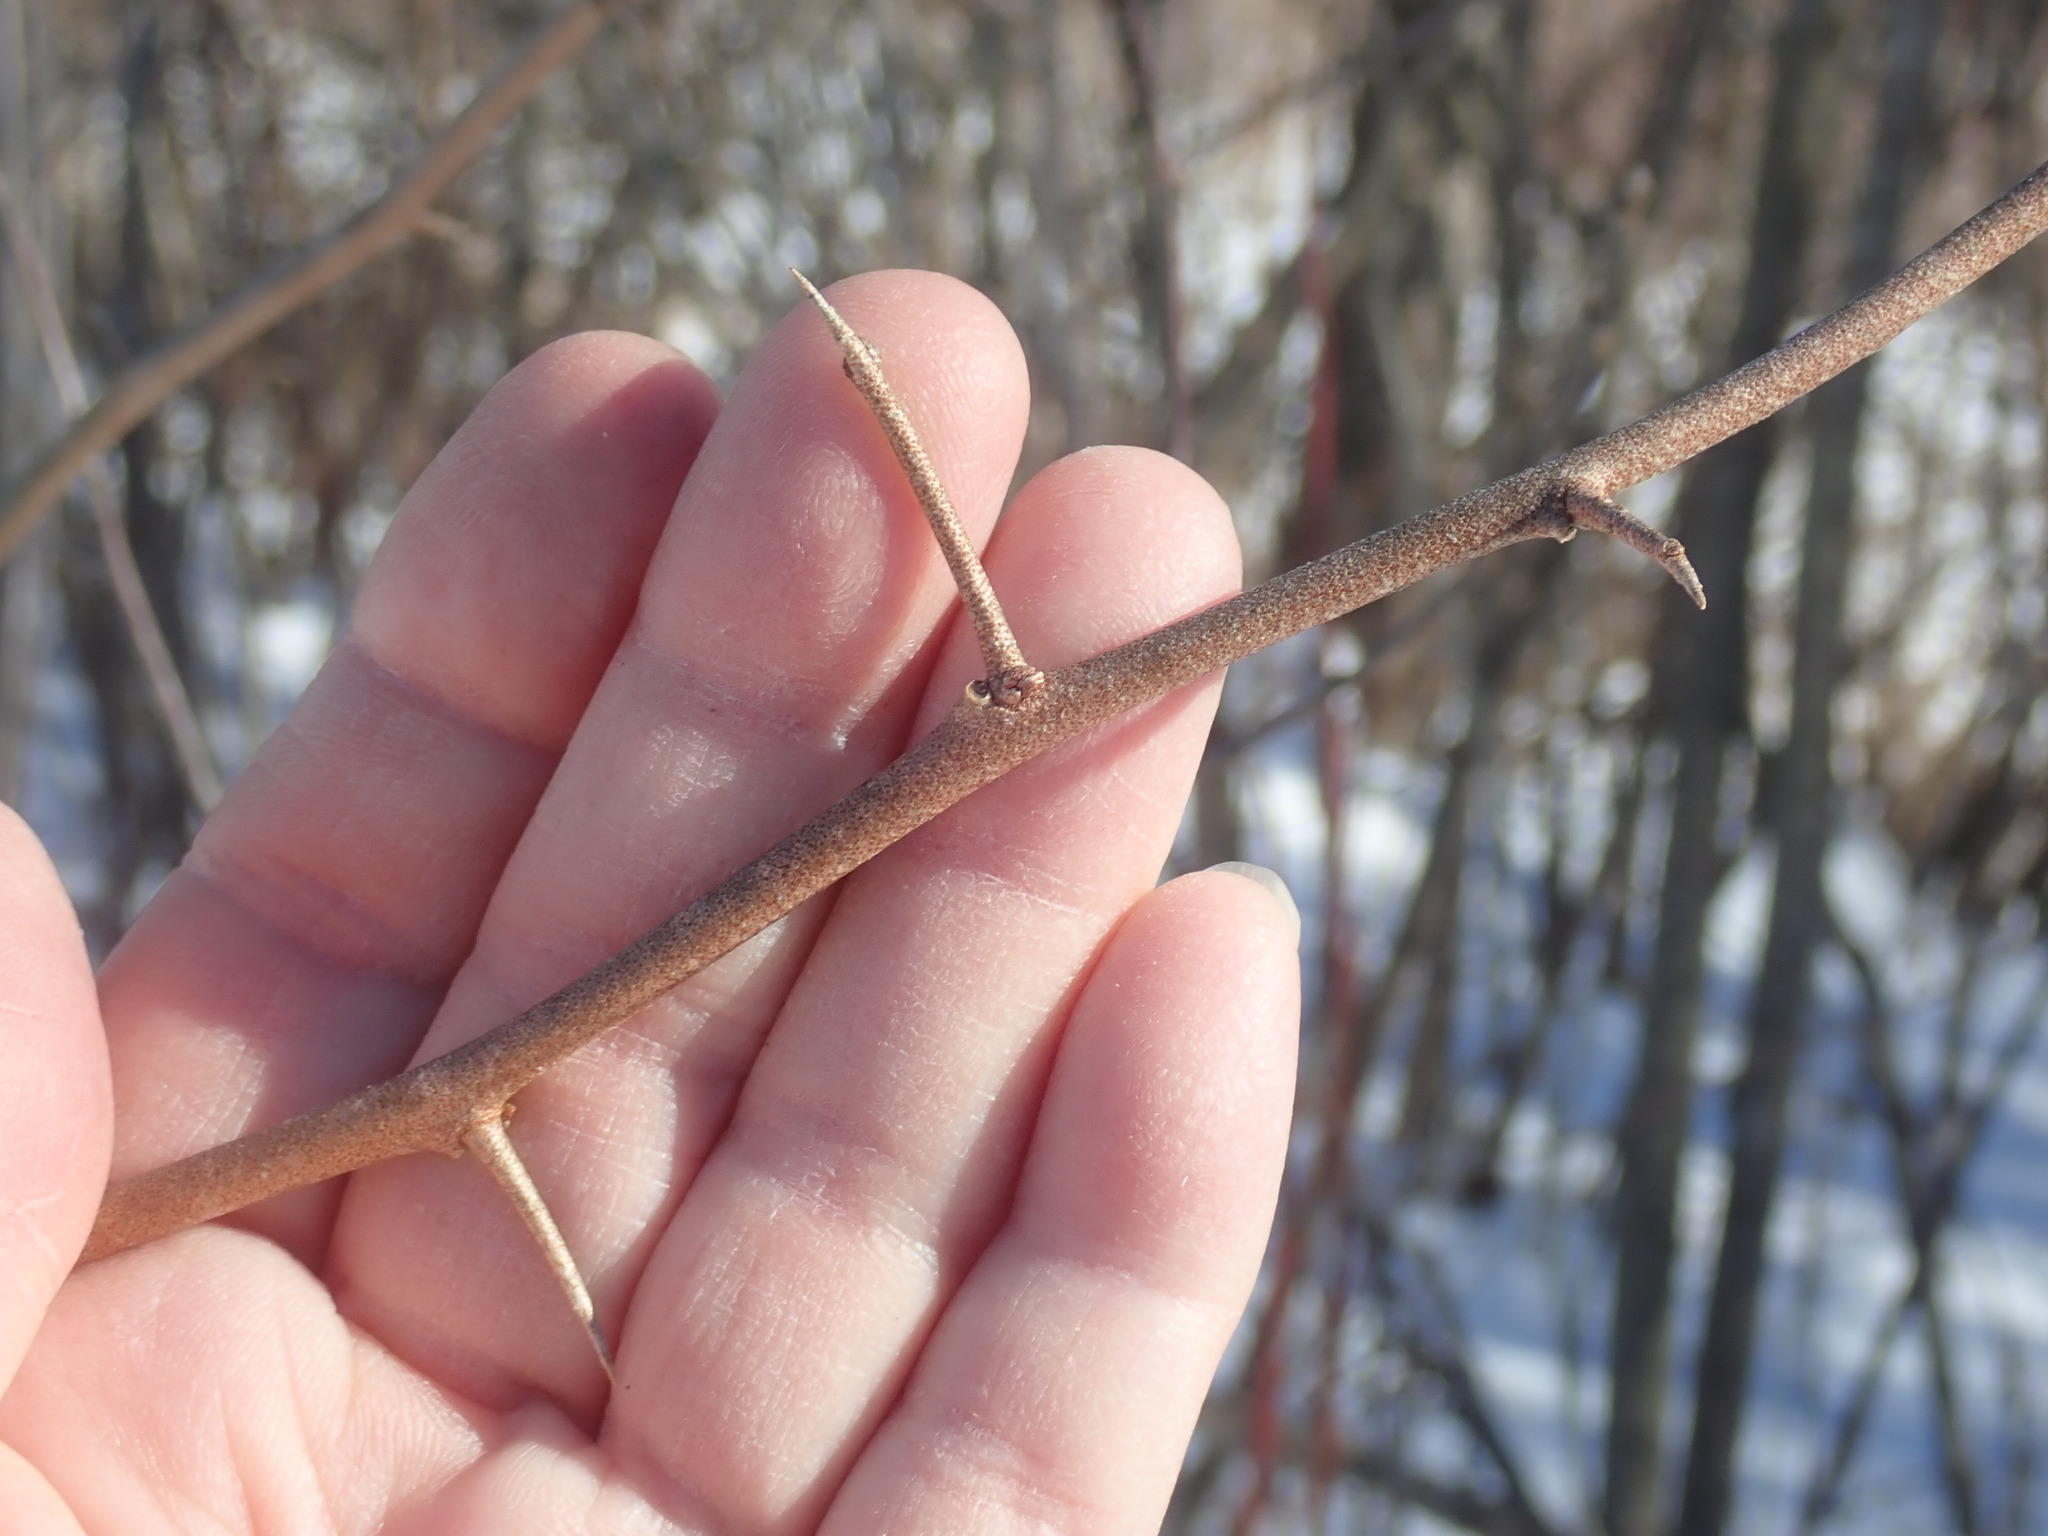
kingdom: Plantae
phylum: Tracheophyta
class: Magnoliopsida
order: Rosales
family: Elaeagnaceae
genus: Elaeagnus
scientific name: Elaeagnus umbellata
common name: Autumn olive
